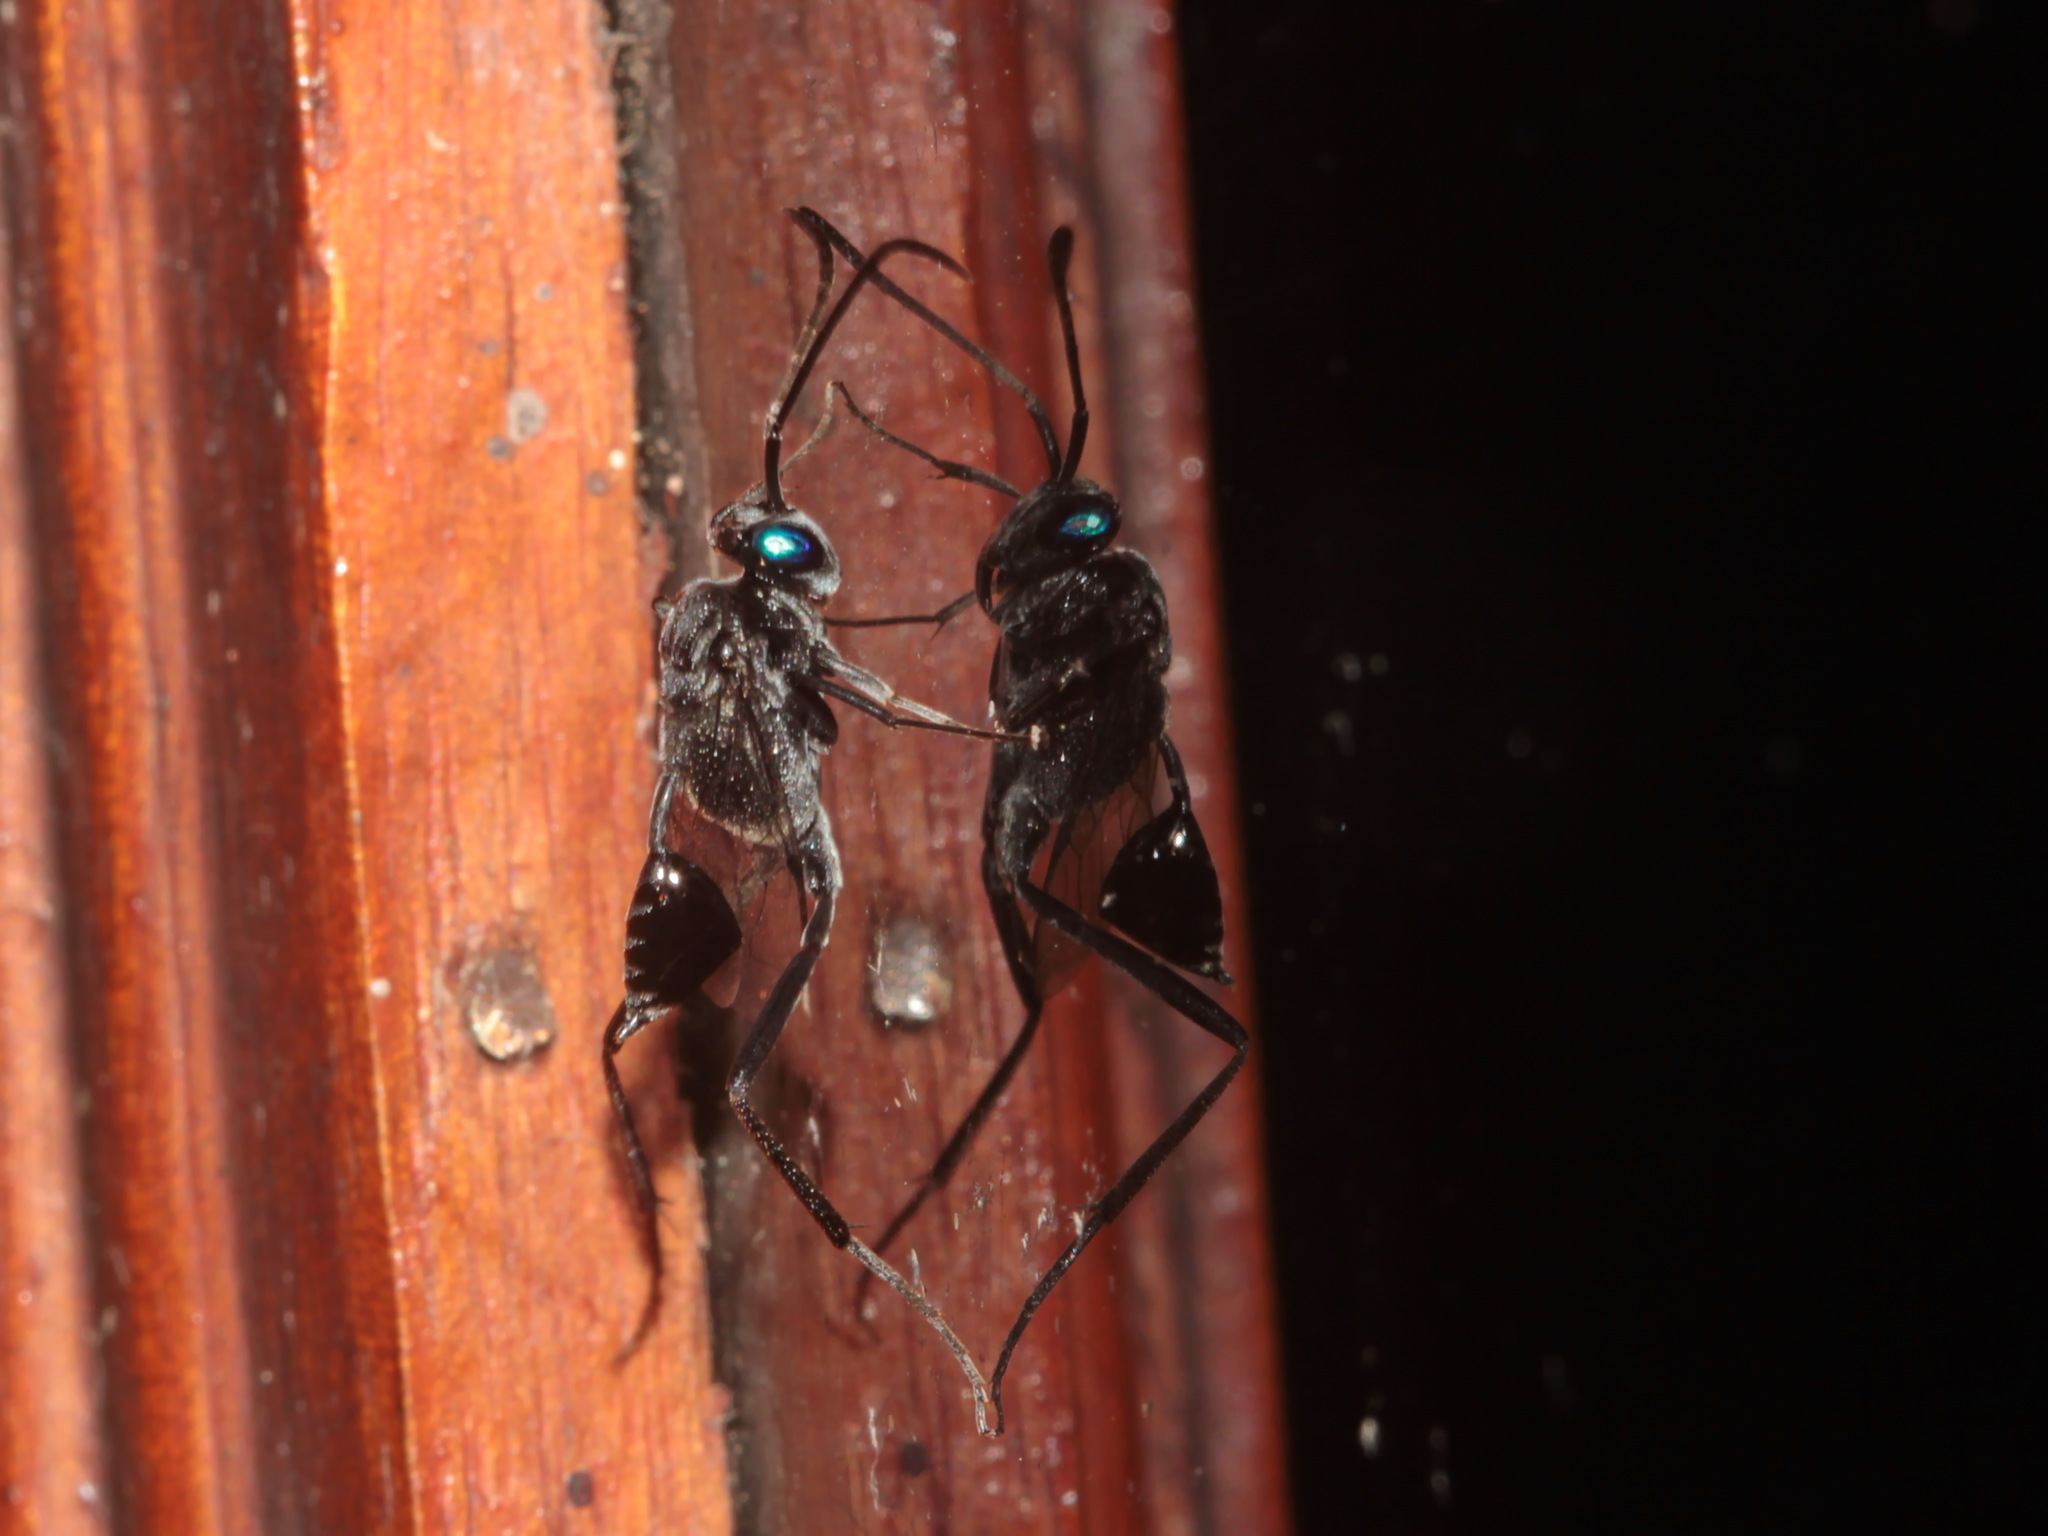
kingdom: Animalia
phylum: Arthropoda
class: Insecta
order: Hymenoptera
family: Evaniidae
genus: Evania
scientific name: Evania appendigaster
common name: Ensign wasp
